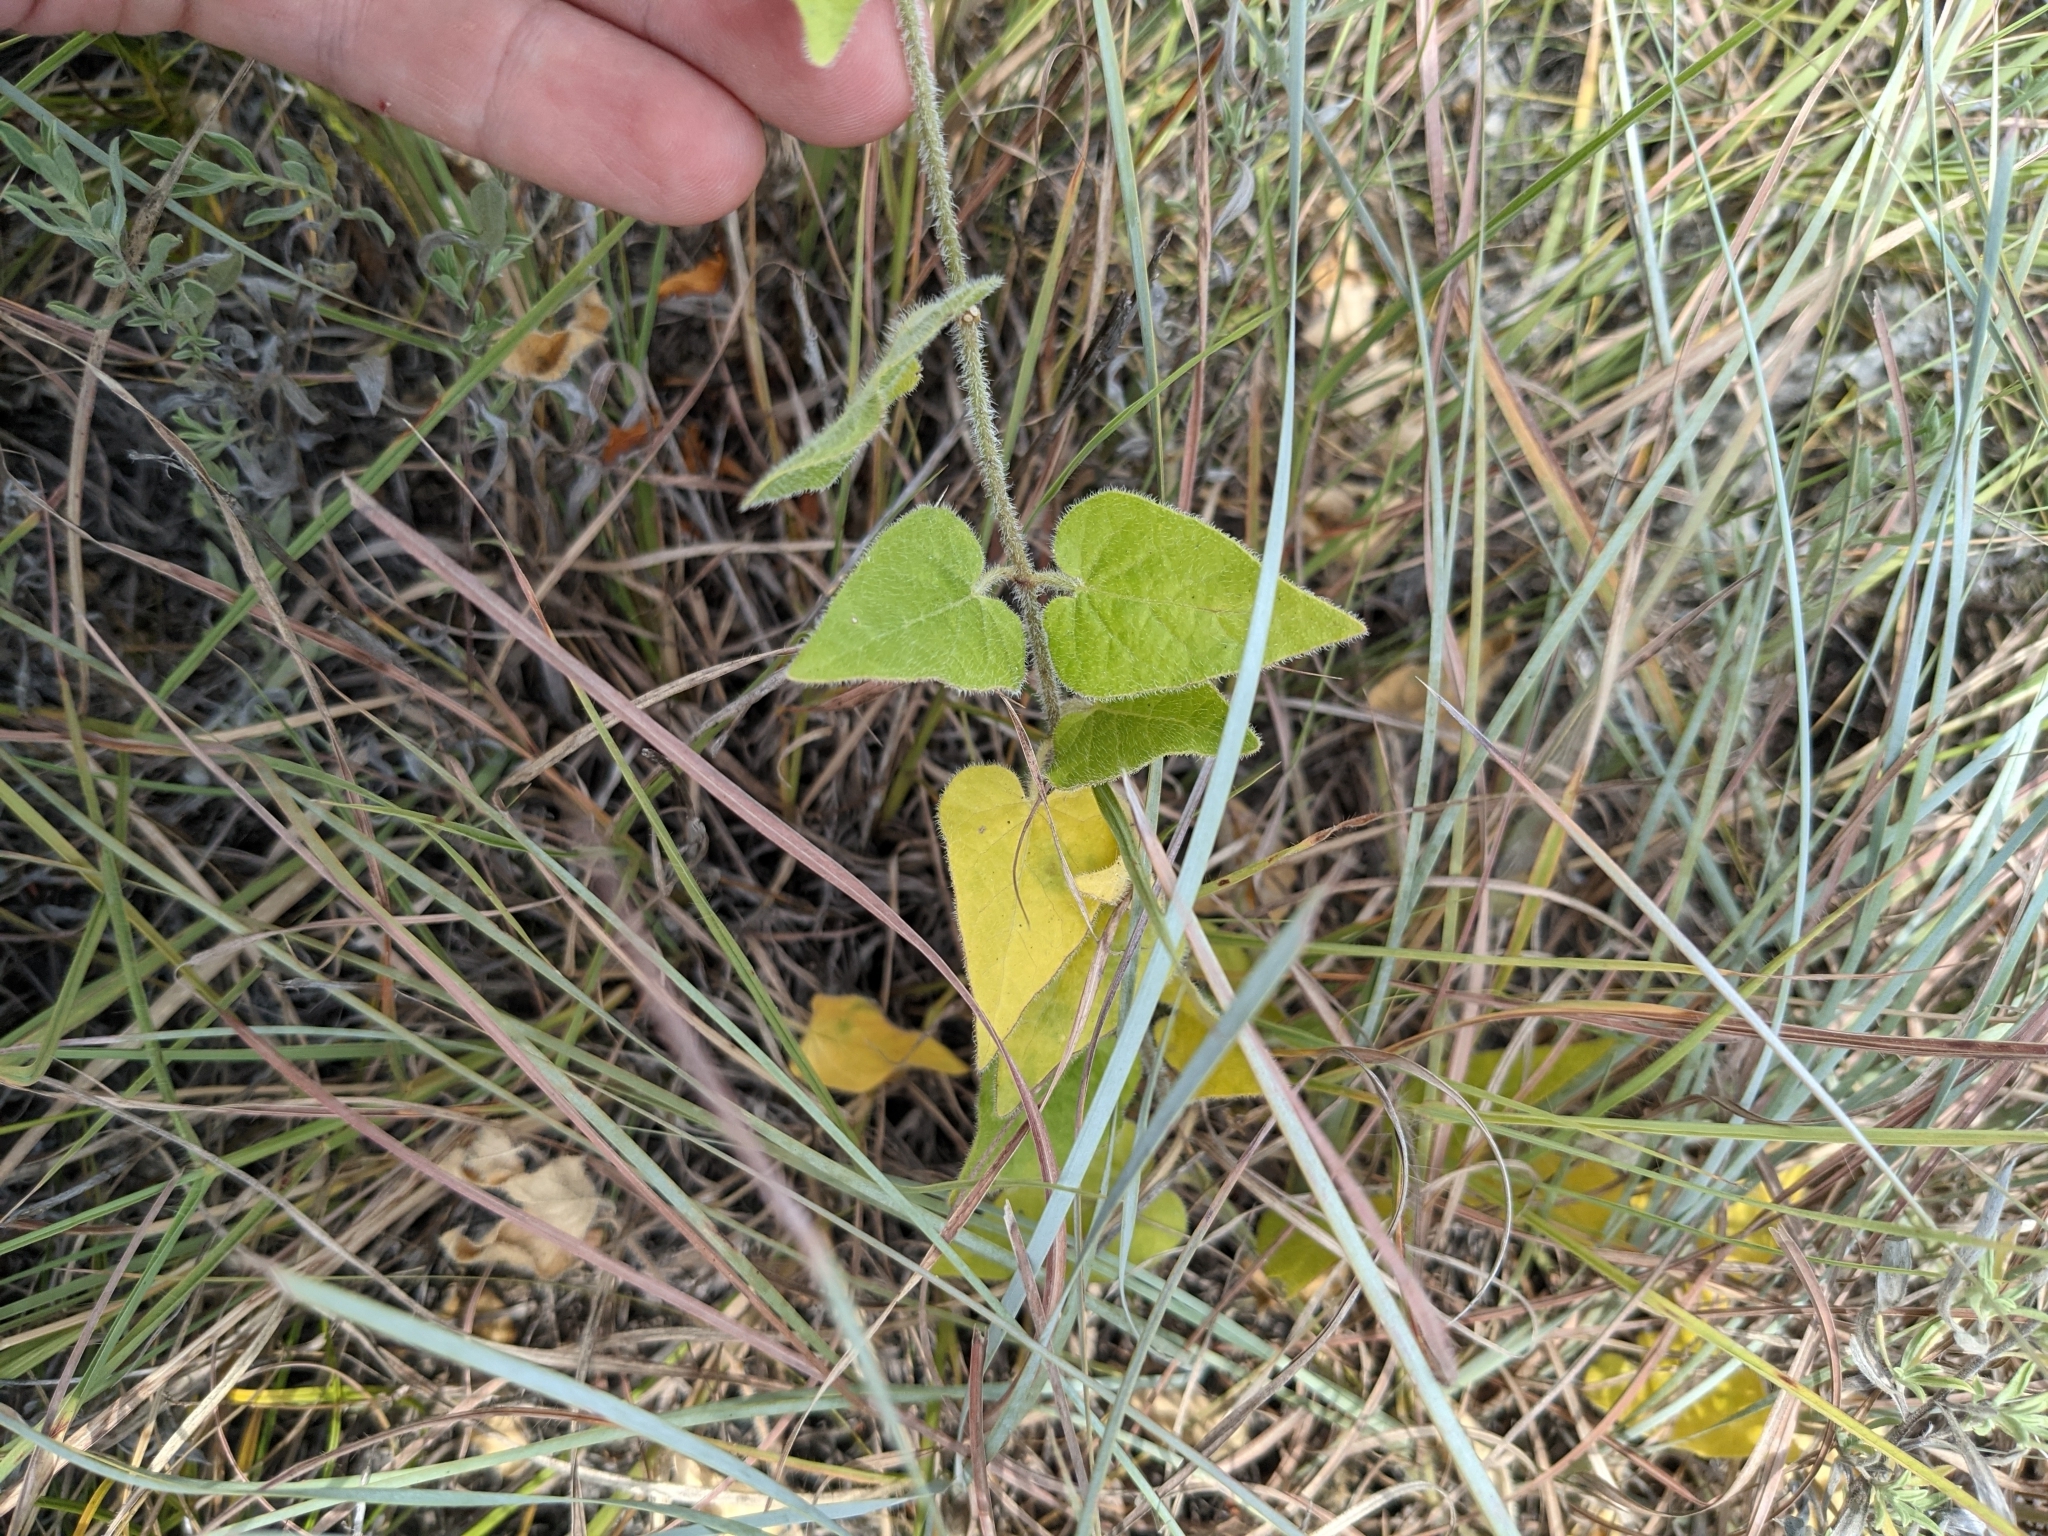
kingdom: Plantae
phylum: Tracheophyta
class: Magnoliopsida
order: Gentianales
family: Apocynaceae
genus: Chthamalia
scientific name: Chthamalia biflora
